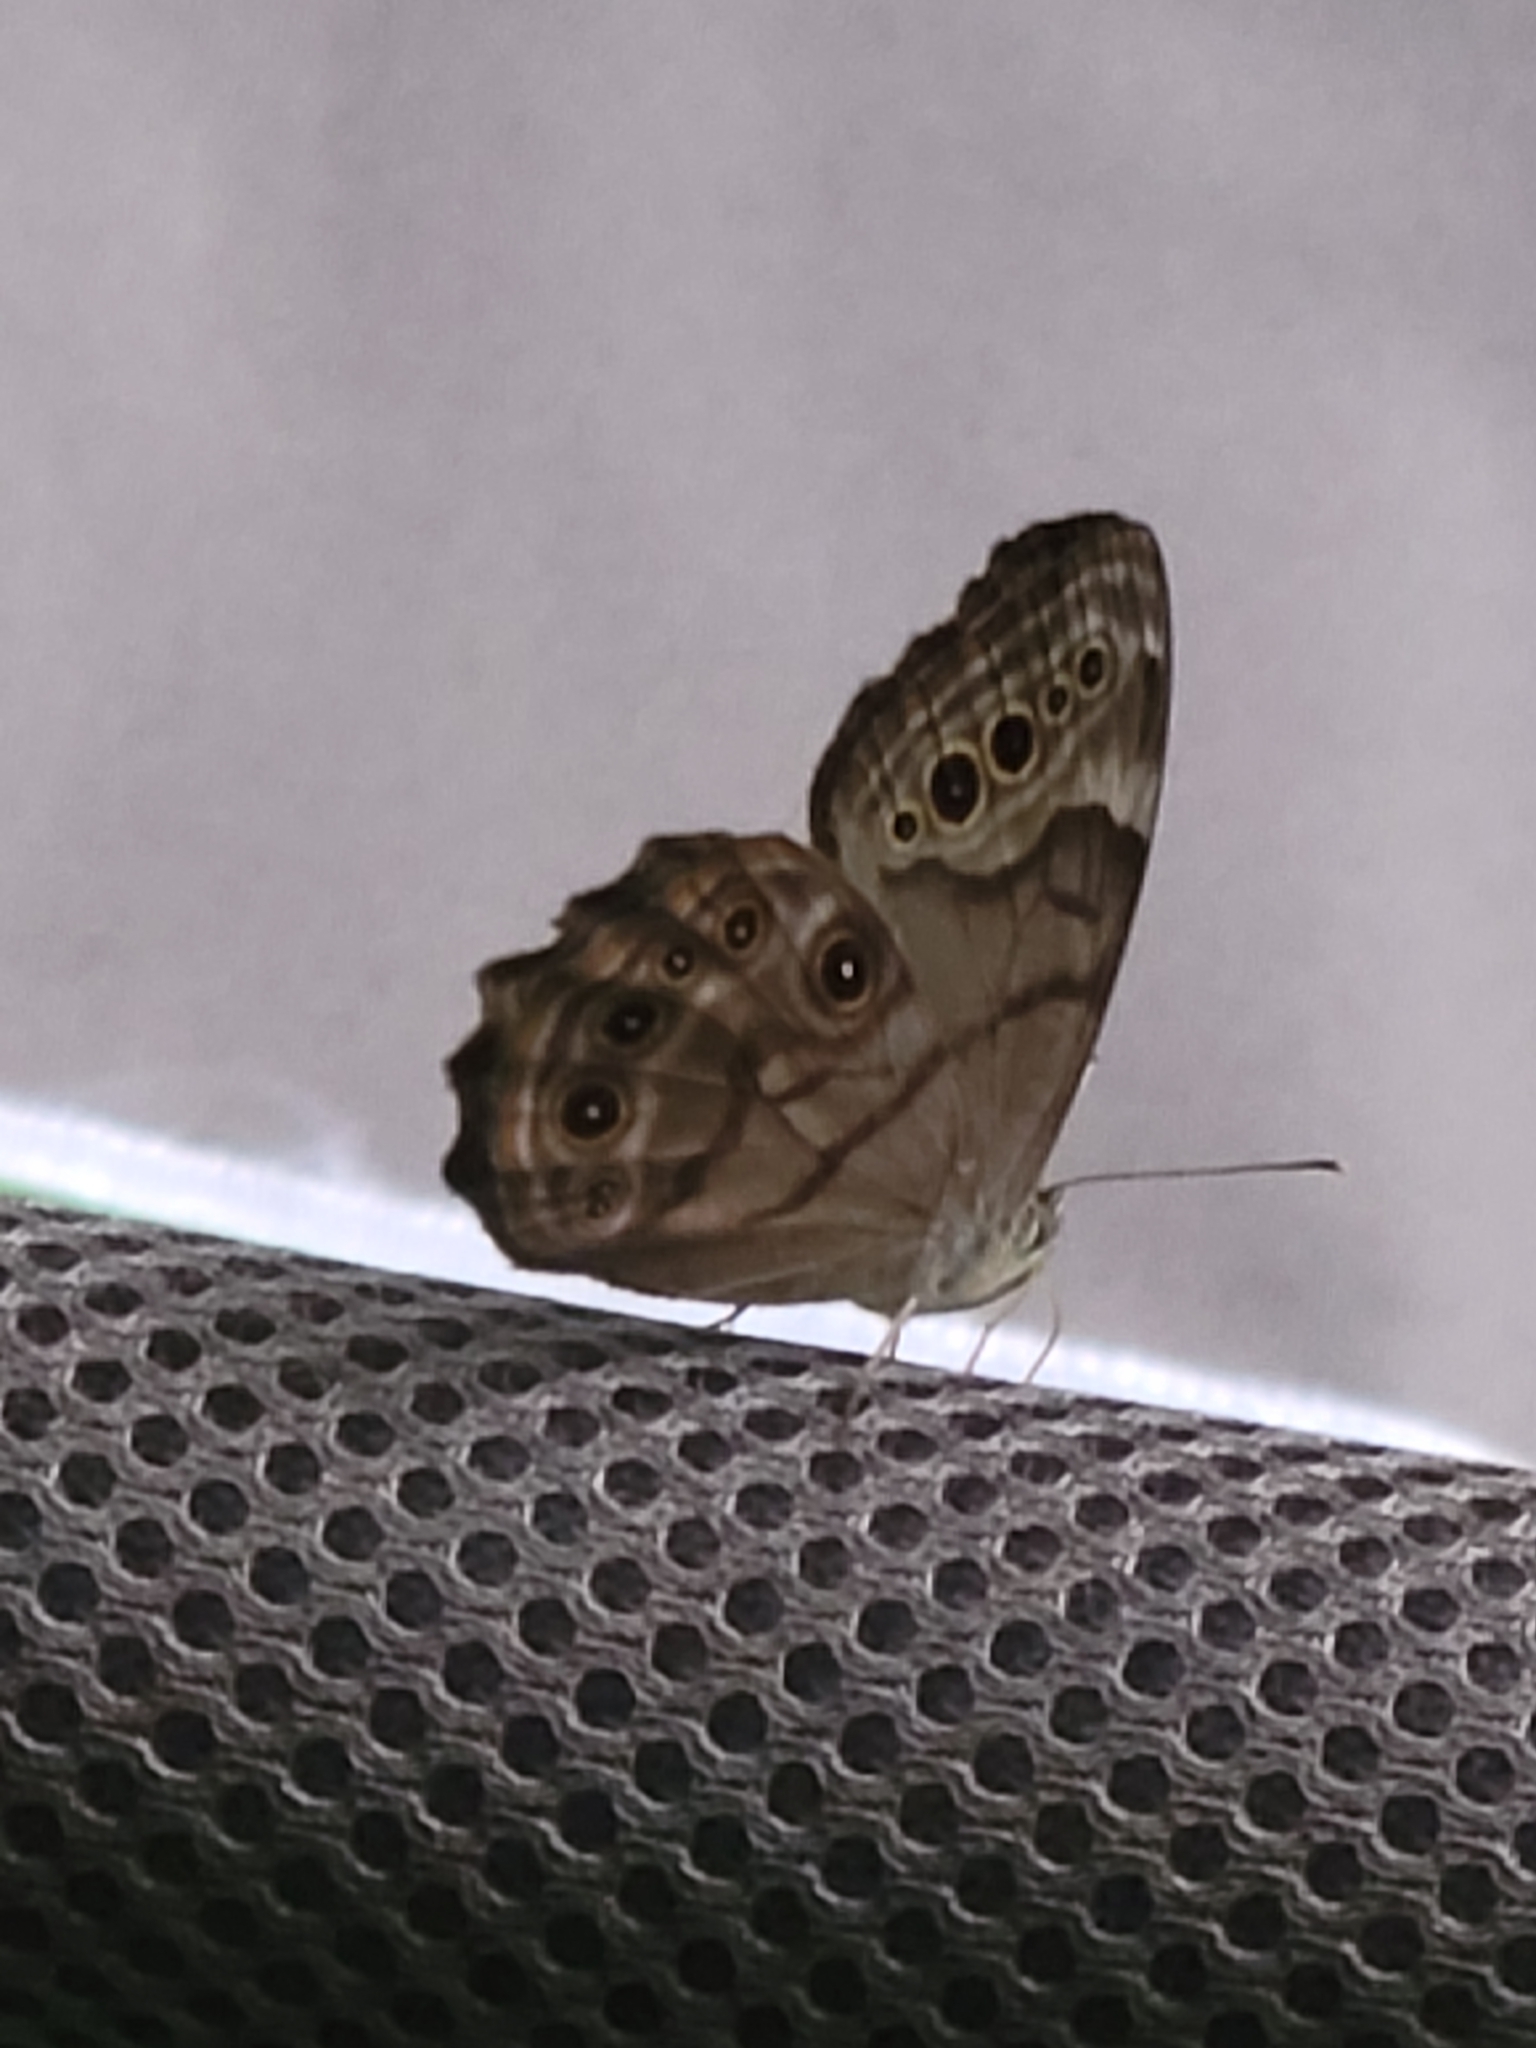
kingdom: Animalia
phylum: Arthropoda
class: Insecta
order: Lepidoptera
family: Nymphalidae
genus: Lethe
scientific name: Lethe anthedon
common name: Northern pearly-eye
